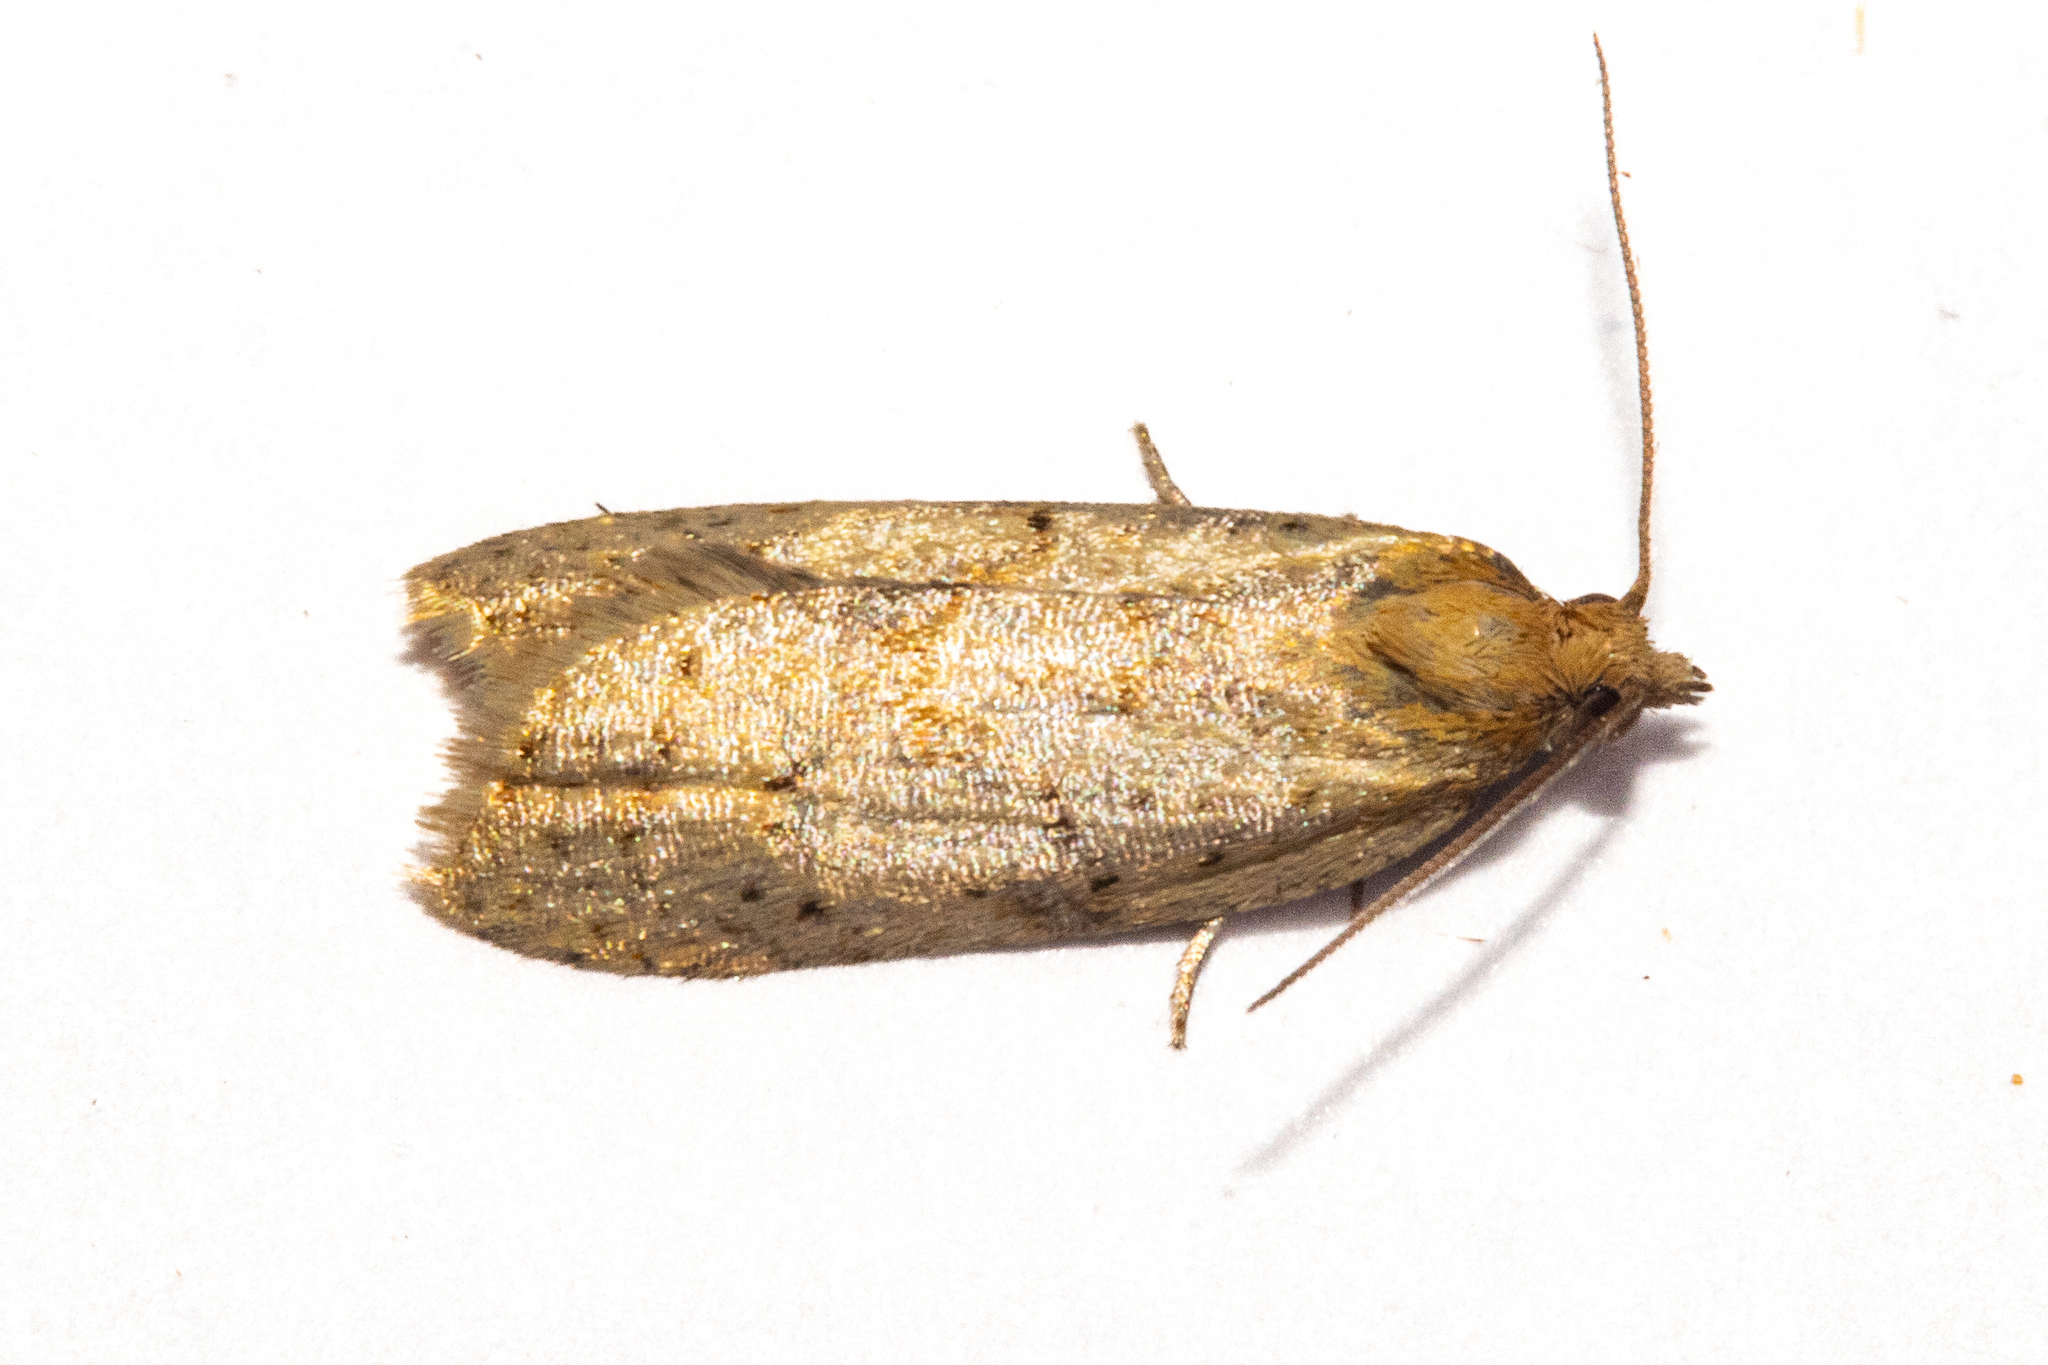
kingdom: Animalia
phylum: Arthropoda
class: Insecta
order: Lepidoptera
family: Tortricidae
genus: Clepsis
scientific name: Clepsis
